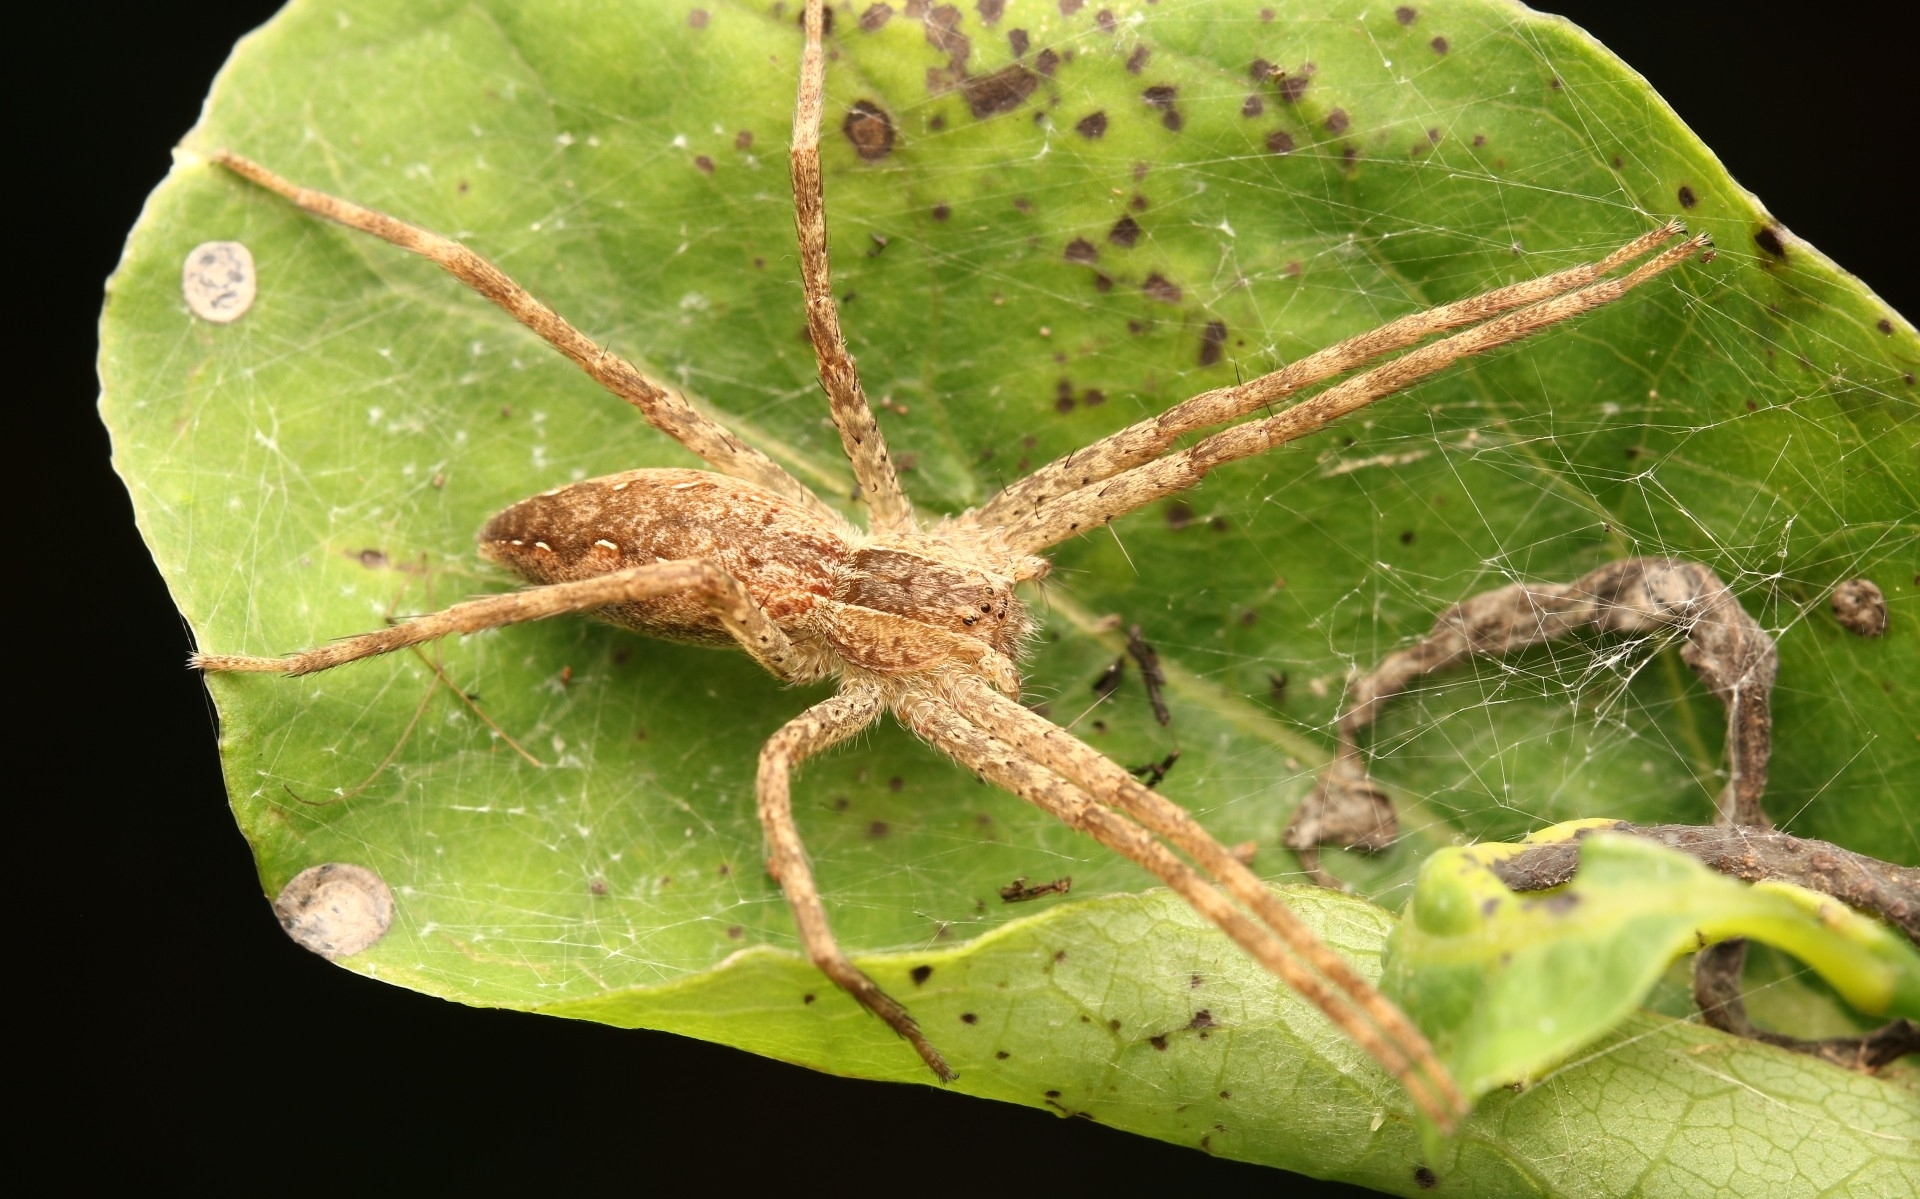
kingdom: Animalia
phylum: Arthropoda
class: Arachnida
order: Araneae
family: Pisauridae
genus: Pisaurina
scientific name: Pisaurina mira
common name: American nursery web spider
